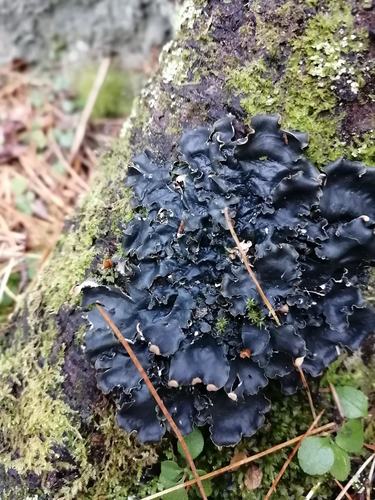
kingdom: Fungi
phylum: Ascomycota
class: Lecanoromycetes
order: Peltigerales
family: Peltigeraceae
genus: Peltigera
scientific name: Peltigera
